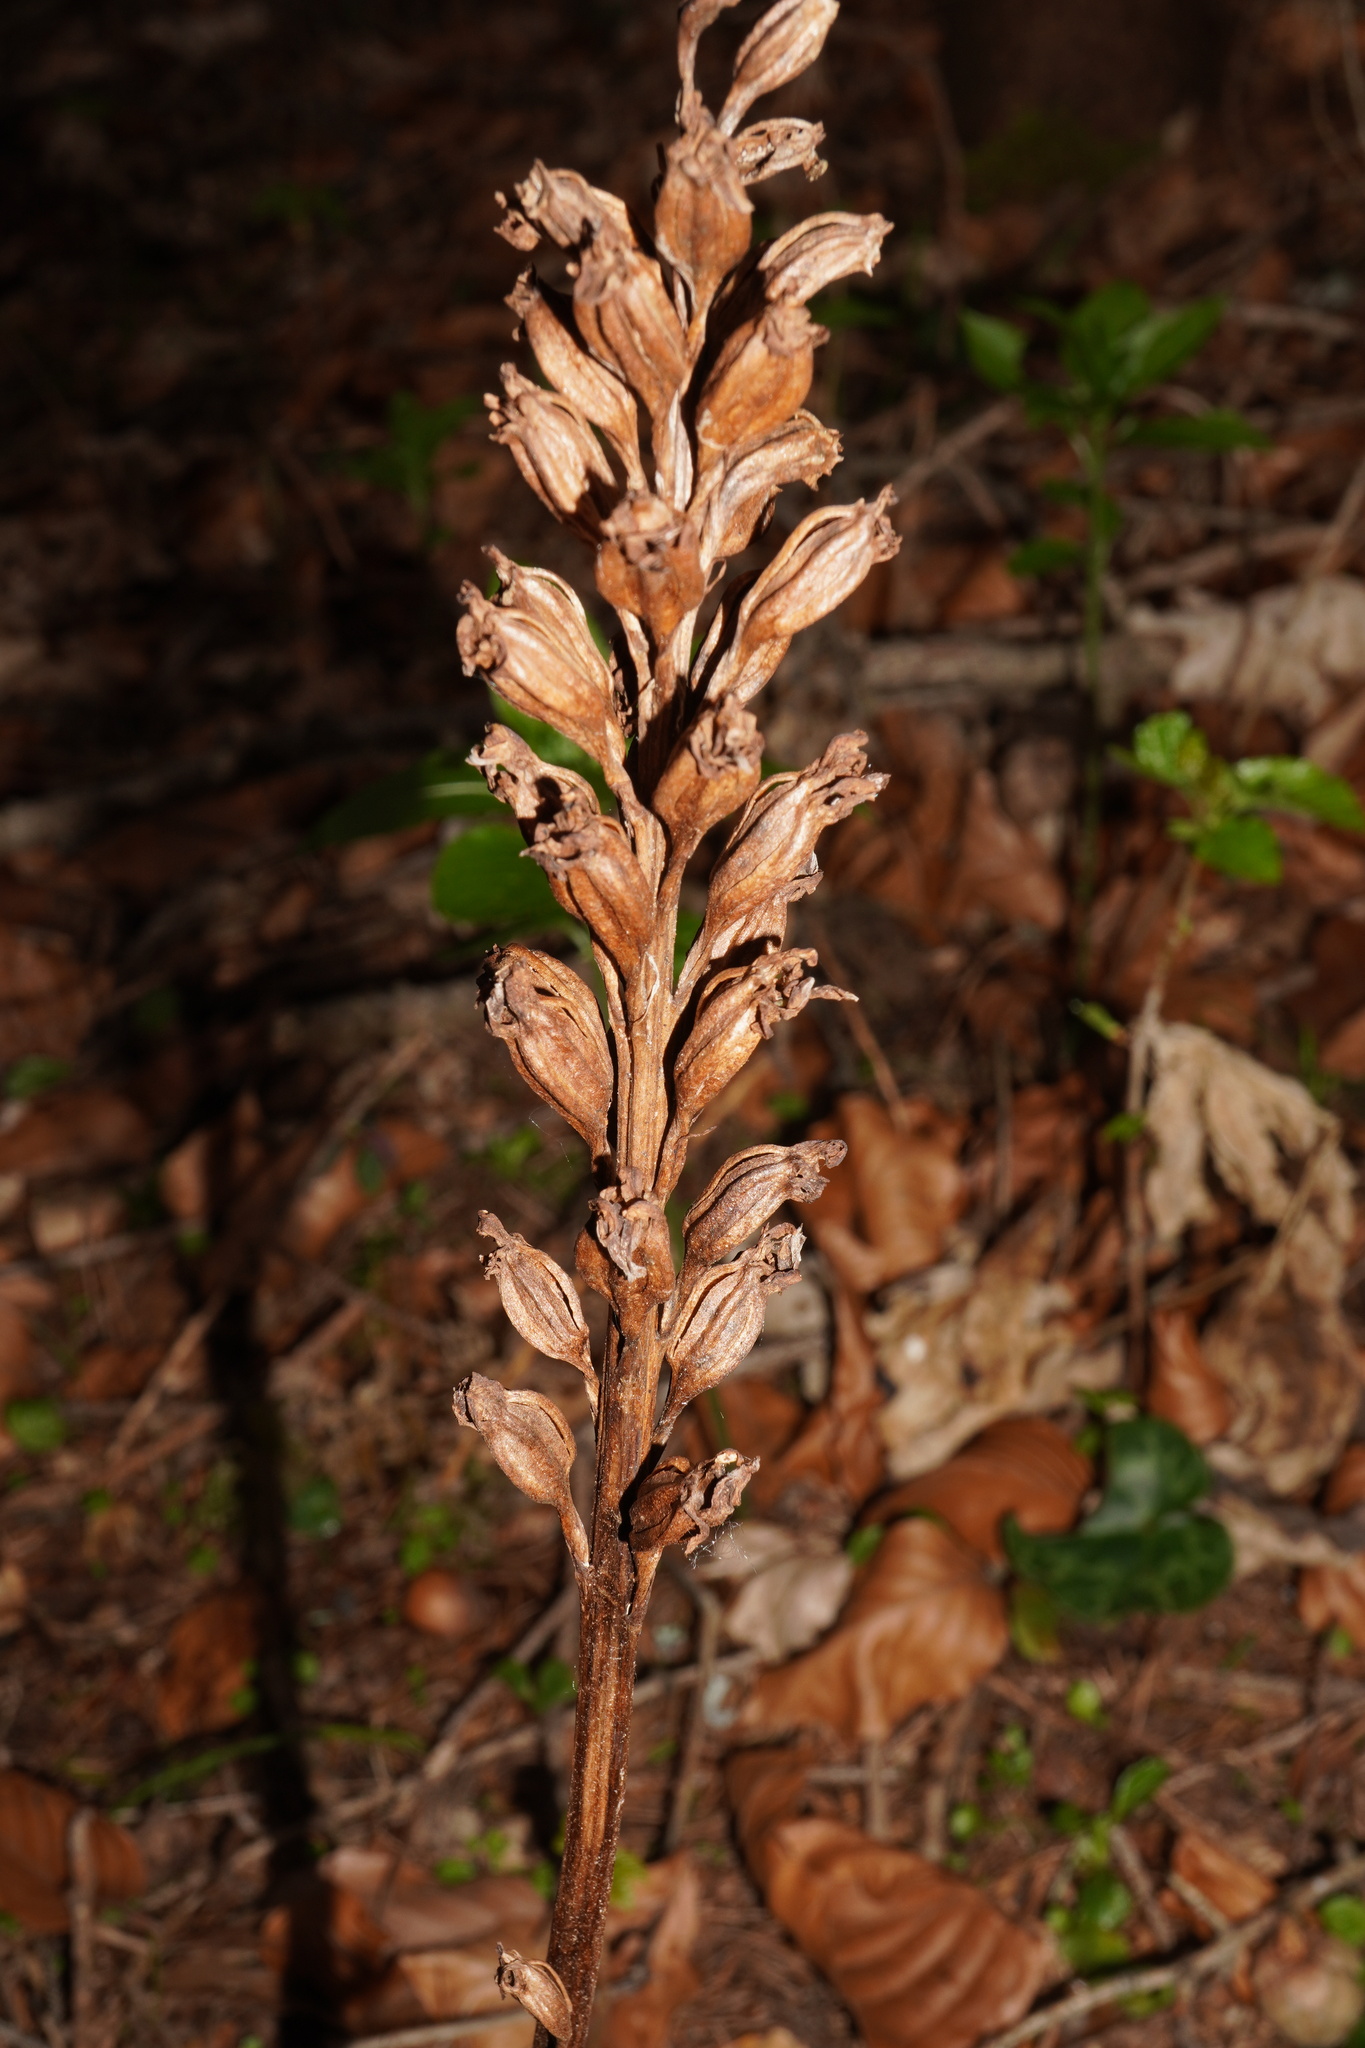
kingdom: Plantae
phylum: Tracheophyta
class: Liliopsida
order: Asparagales
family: Orchidaceae
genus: Neottia
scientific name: Neottia nidus-avis
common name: Bird's-nest orchid
